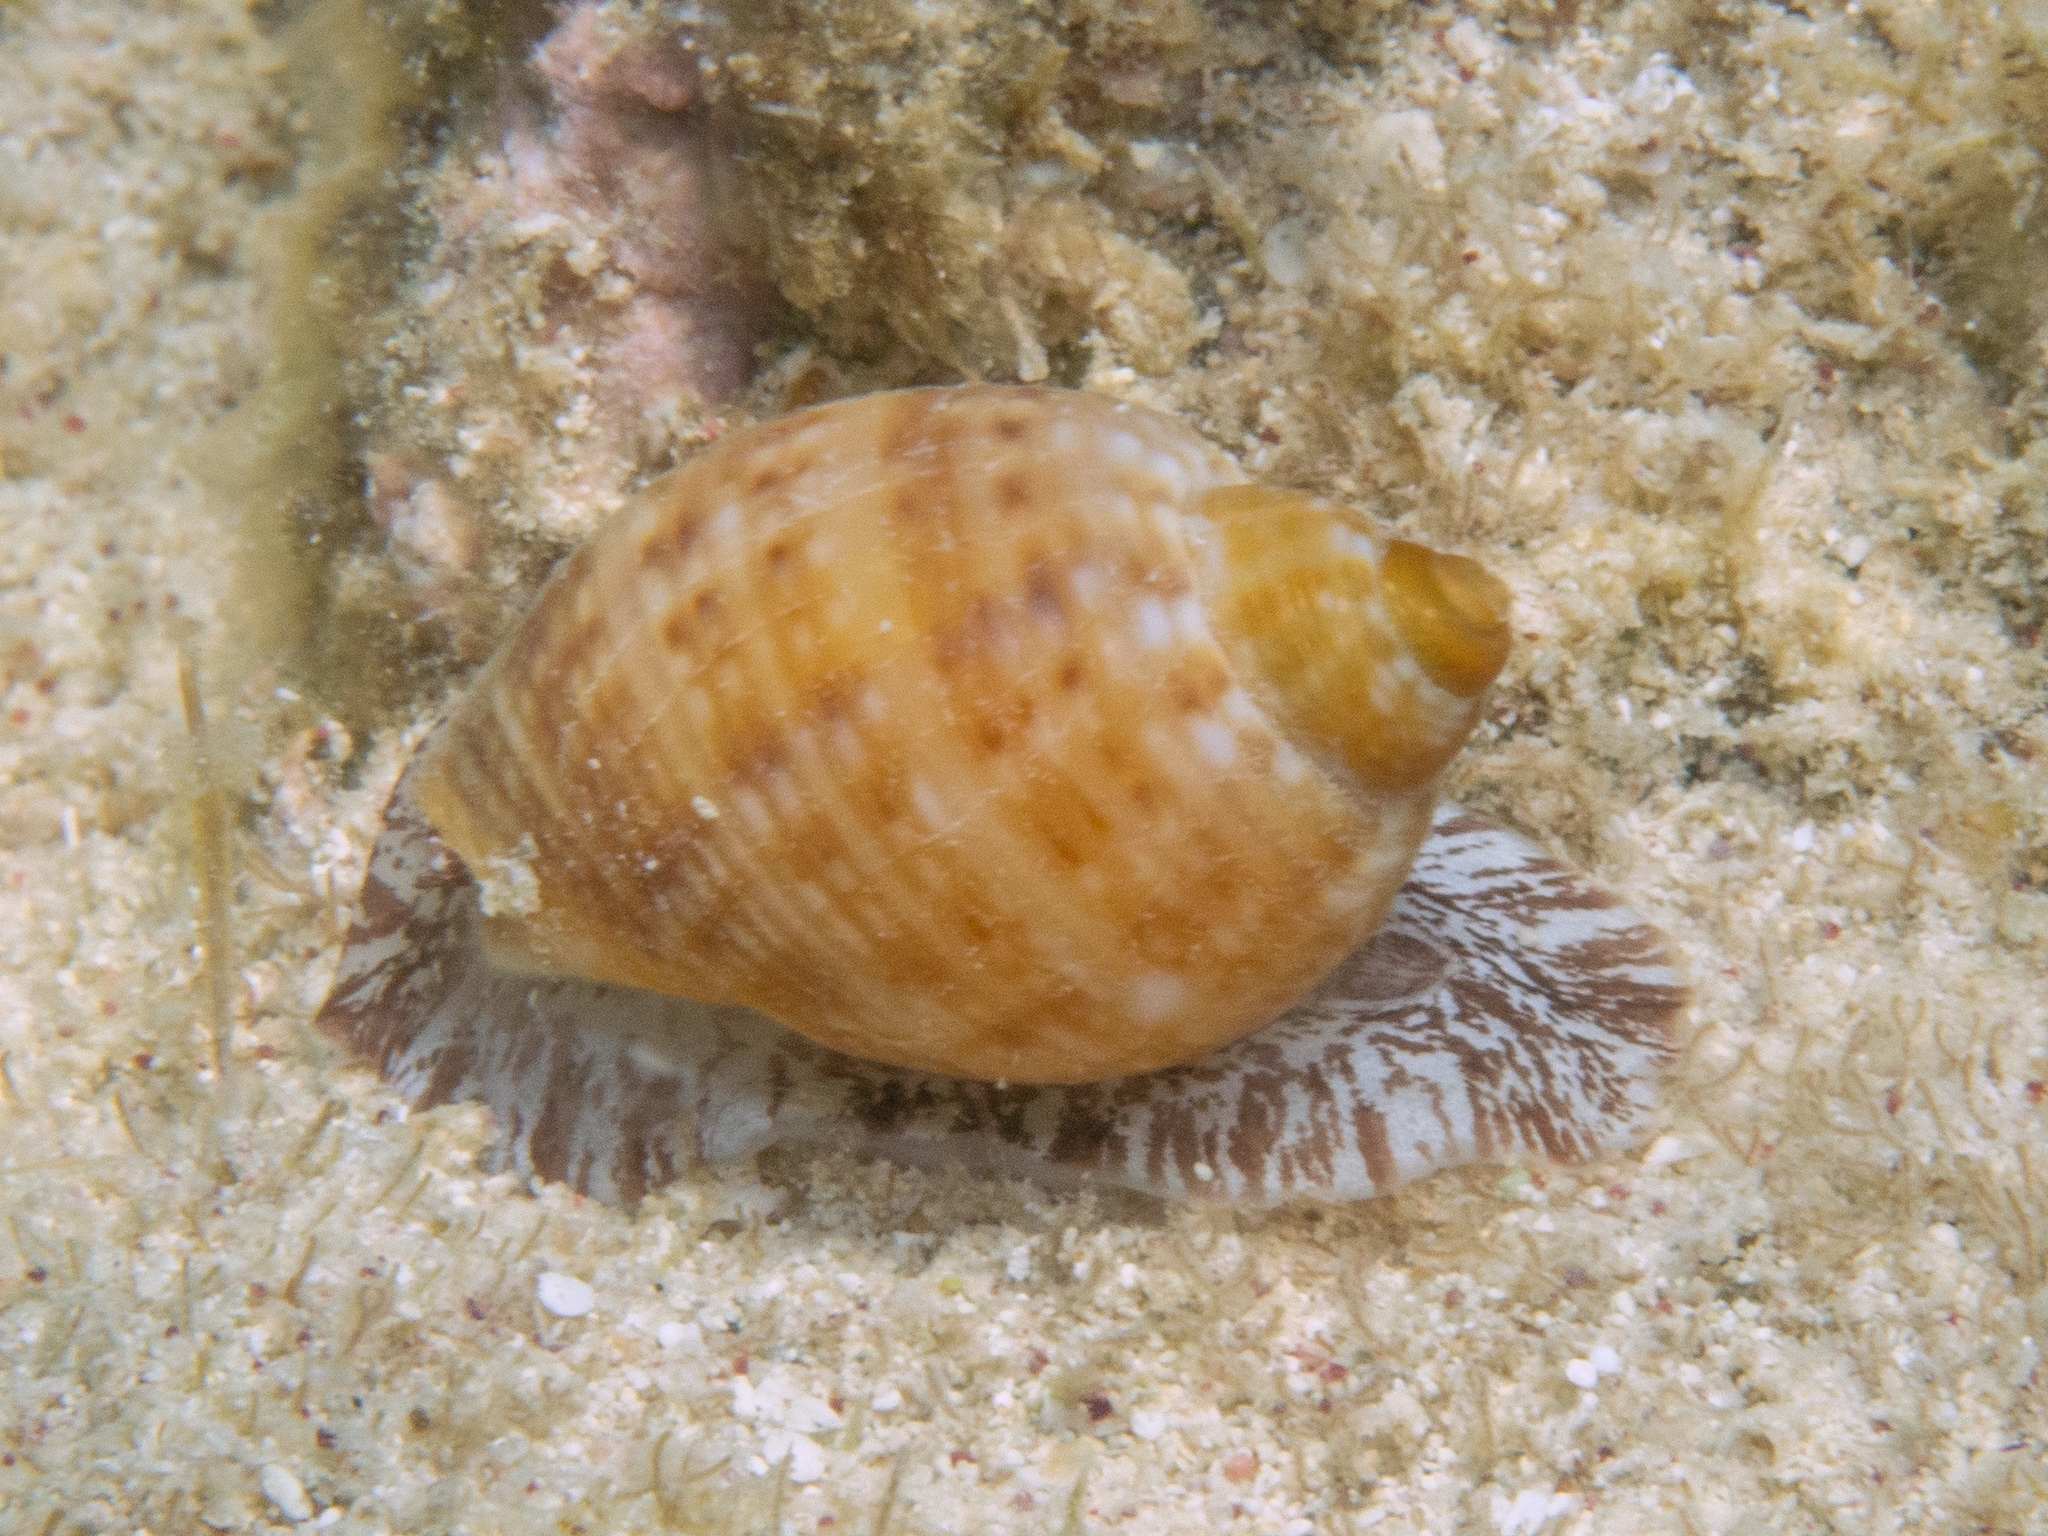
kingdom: Animalia
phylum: Mollusca
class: Gastropoda
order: Littorinimorpha
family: Tonnidae
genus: Tonna
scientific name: Tonna pennata
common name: Atlantic partridge tun
